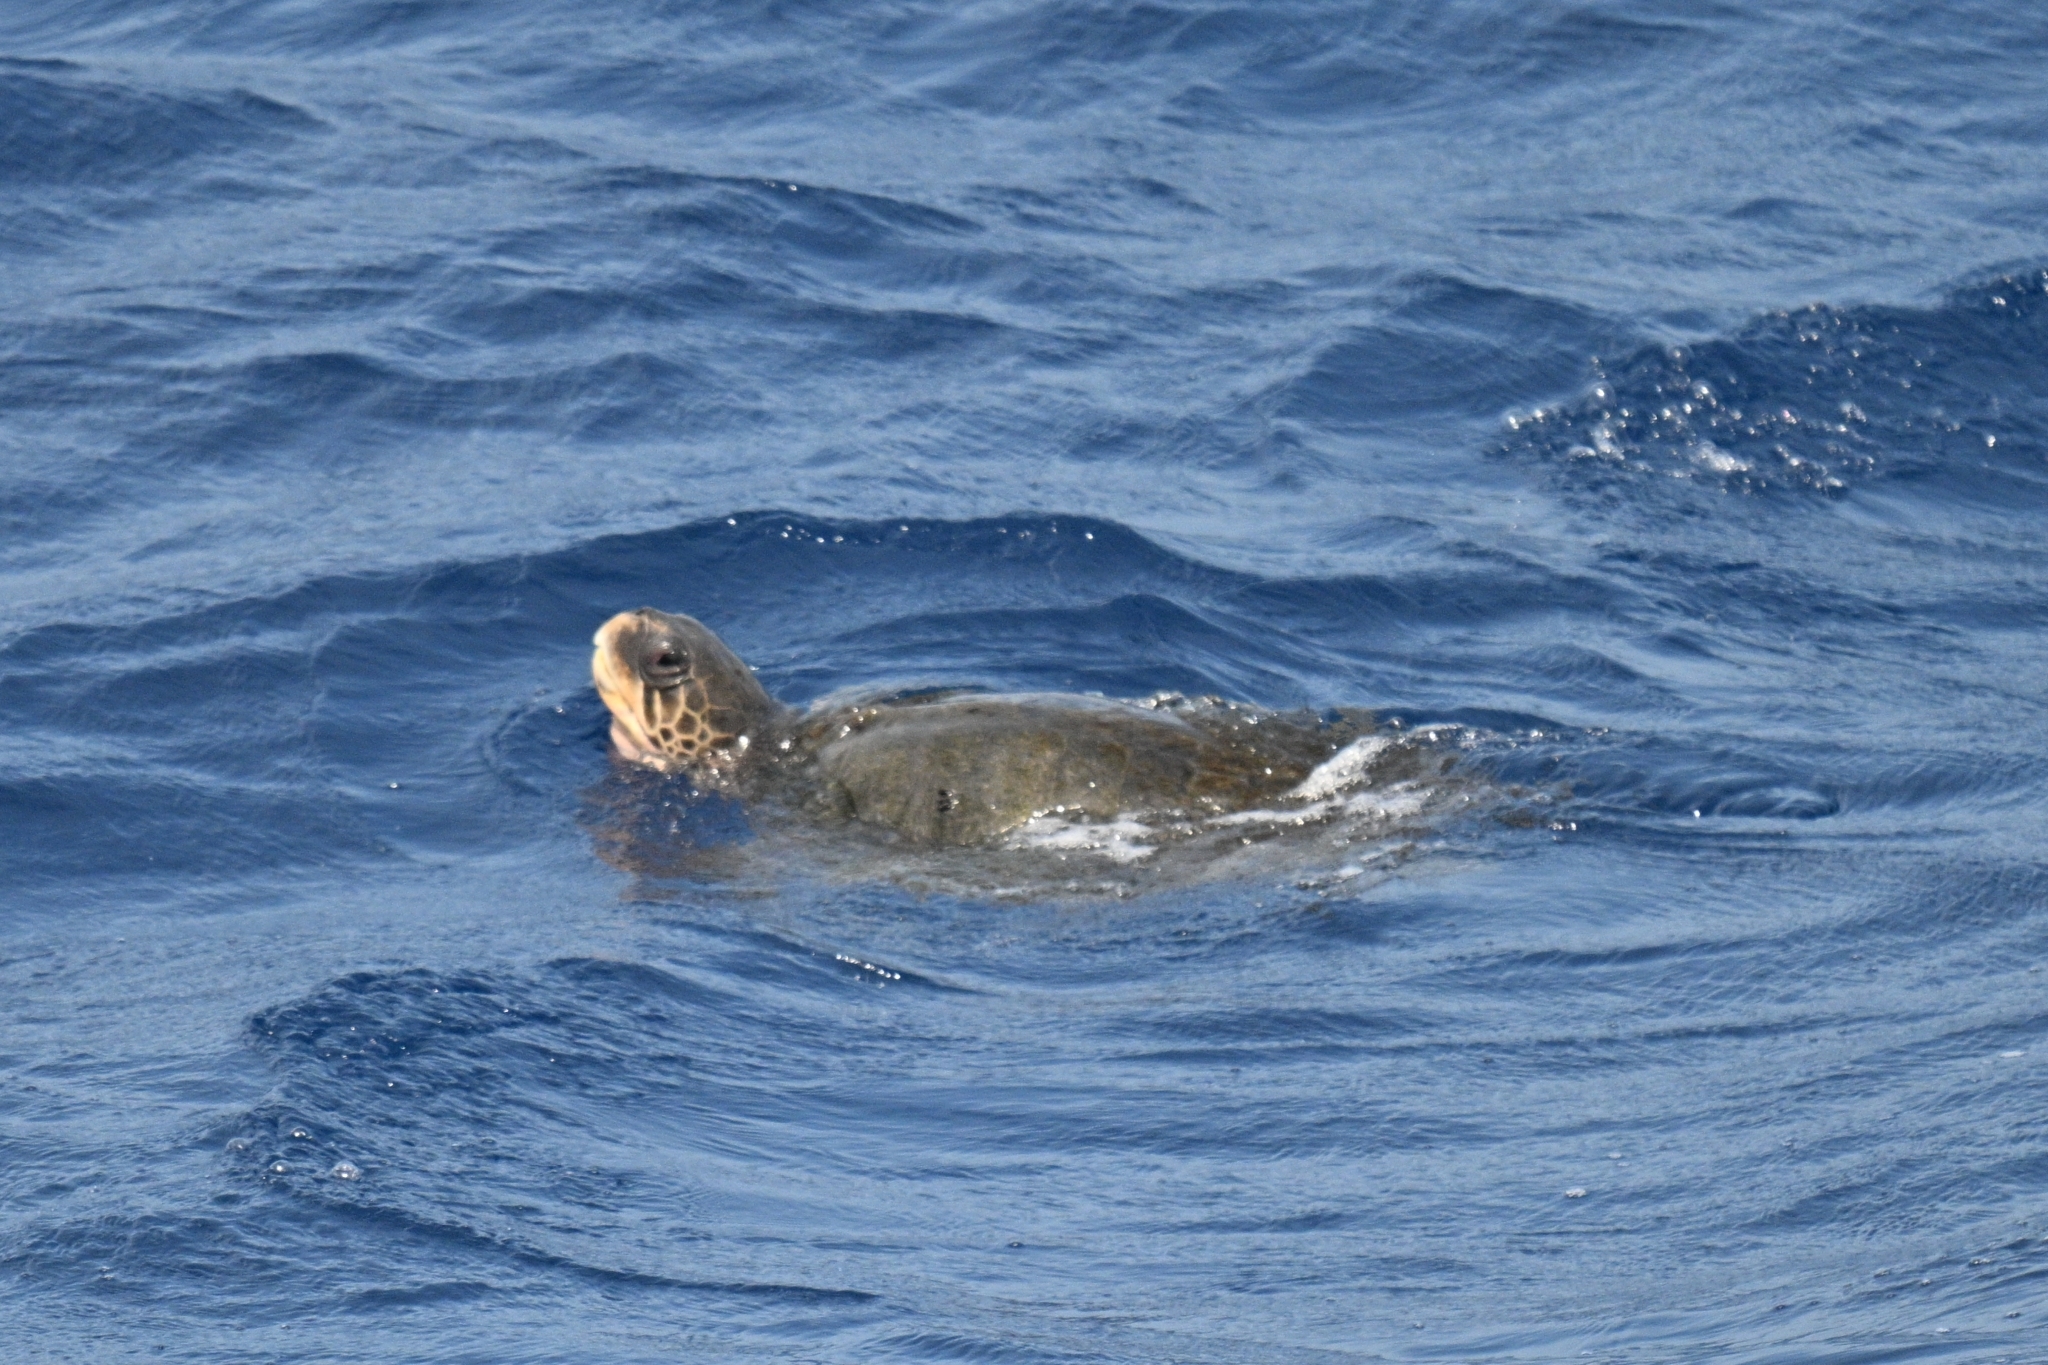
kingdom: Animalia
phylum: Chordata
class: Testudines
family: Cheloniidae
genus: Lepidochelys
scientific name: Lepidochelys olivacea
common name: Olive ridley
